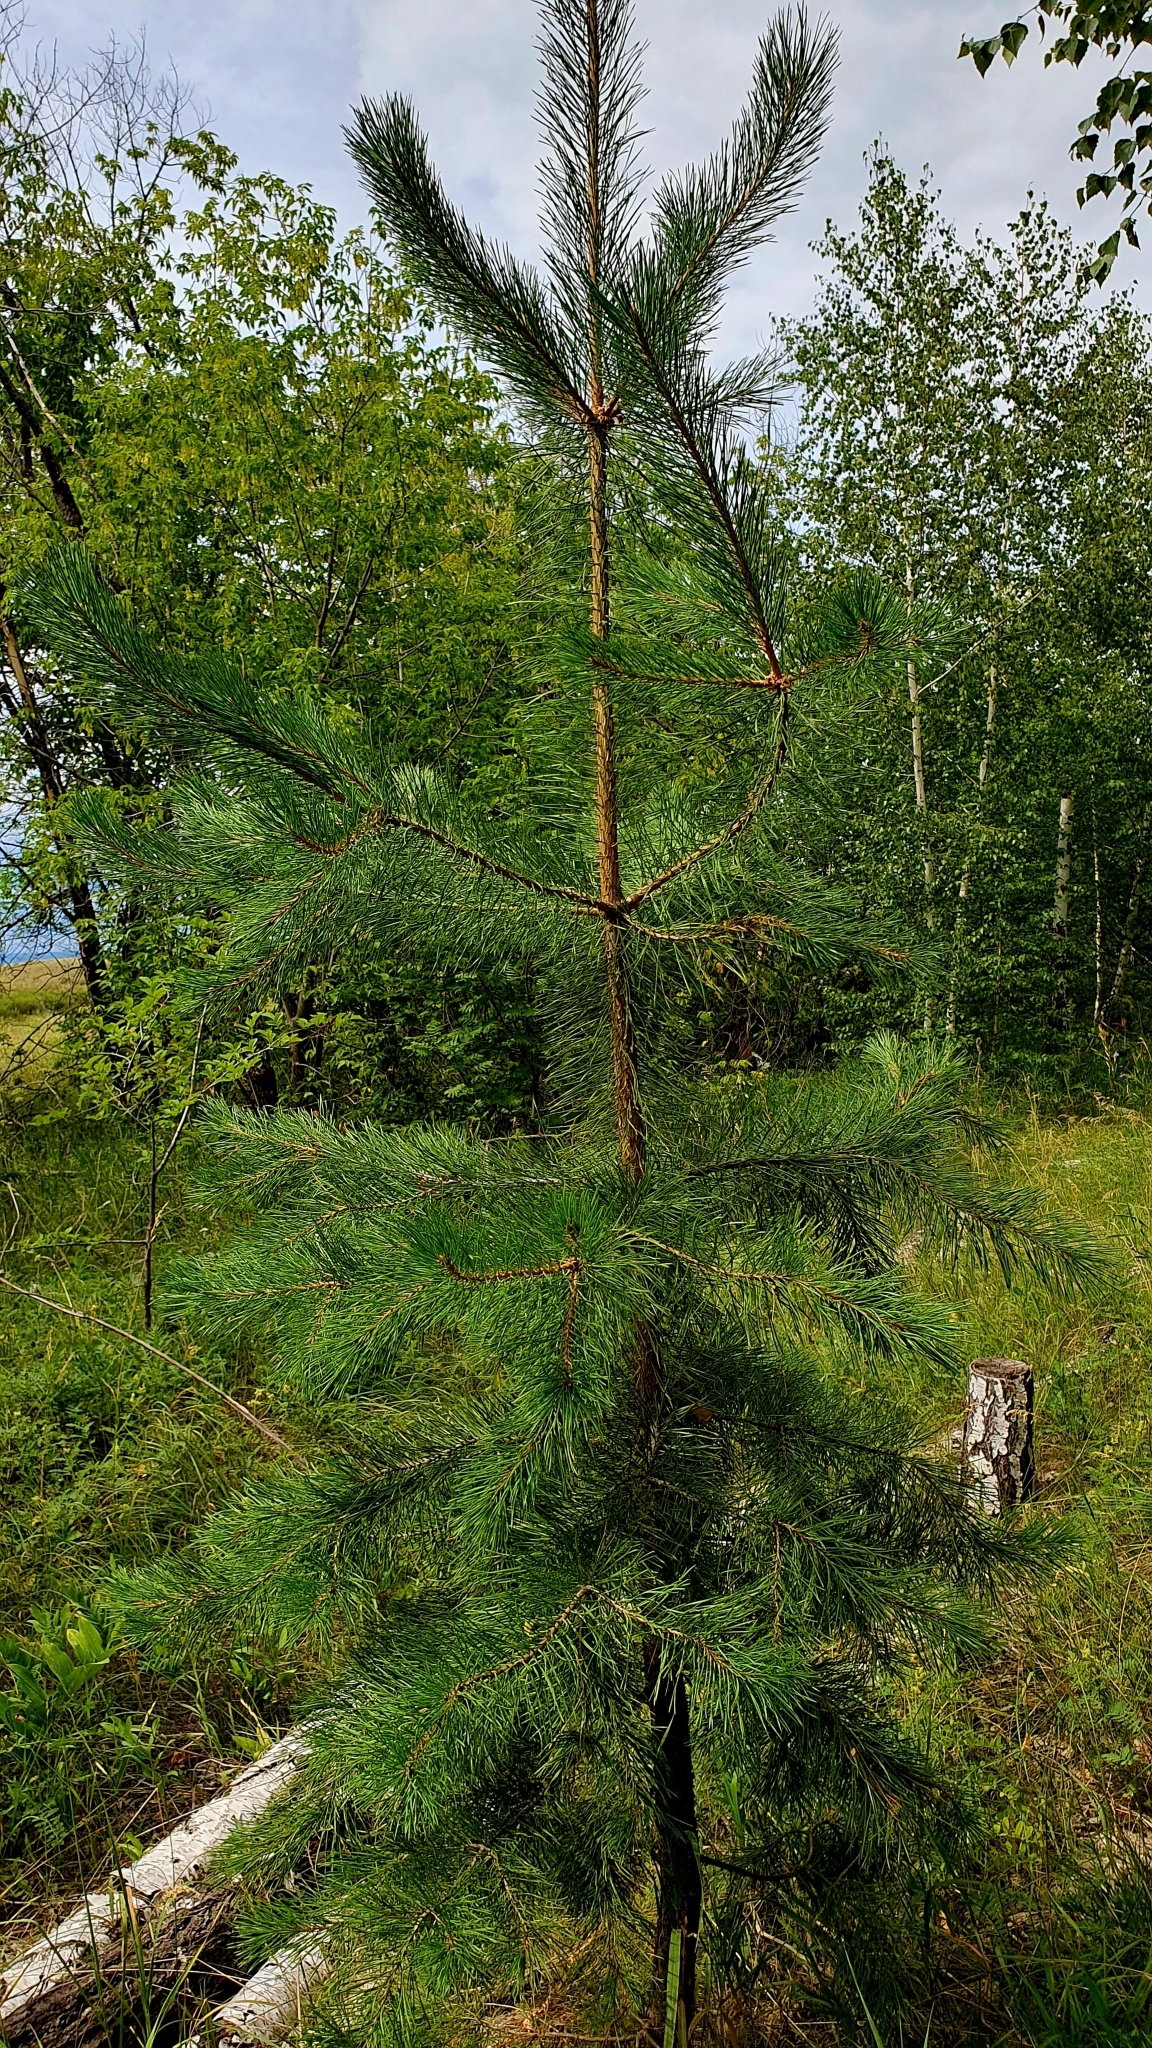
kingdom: Plantae
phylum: Tracheophyta
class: Pinopsida
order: Pinales
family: Pinaceae
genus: Pinus
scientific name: Pinus sylvestris
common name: Scots pine
